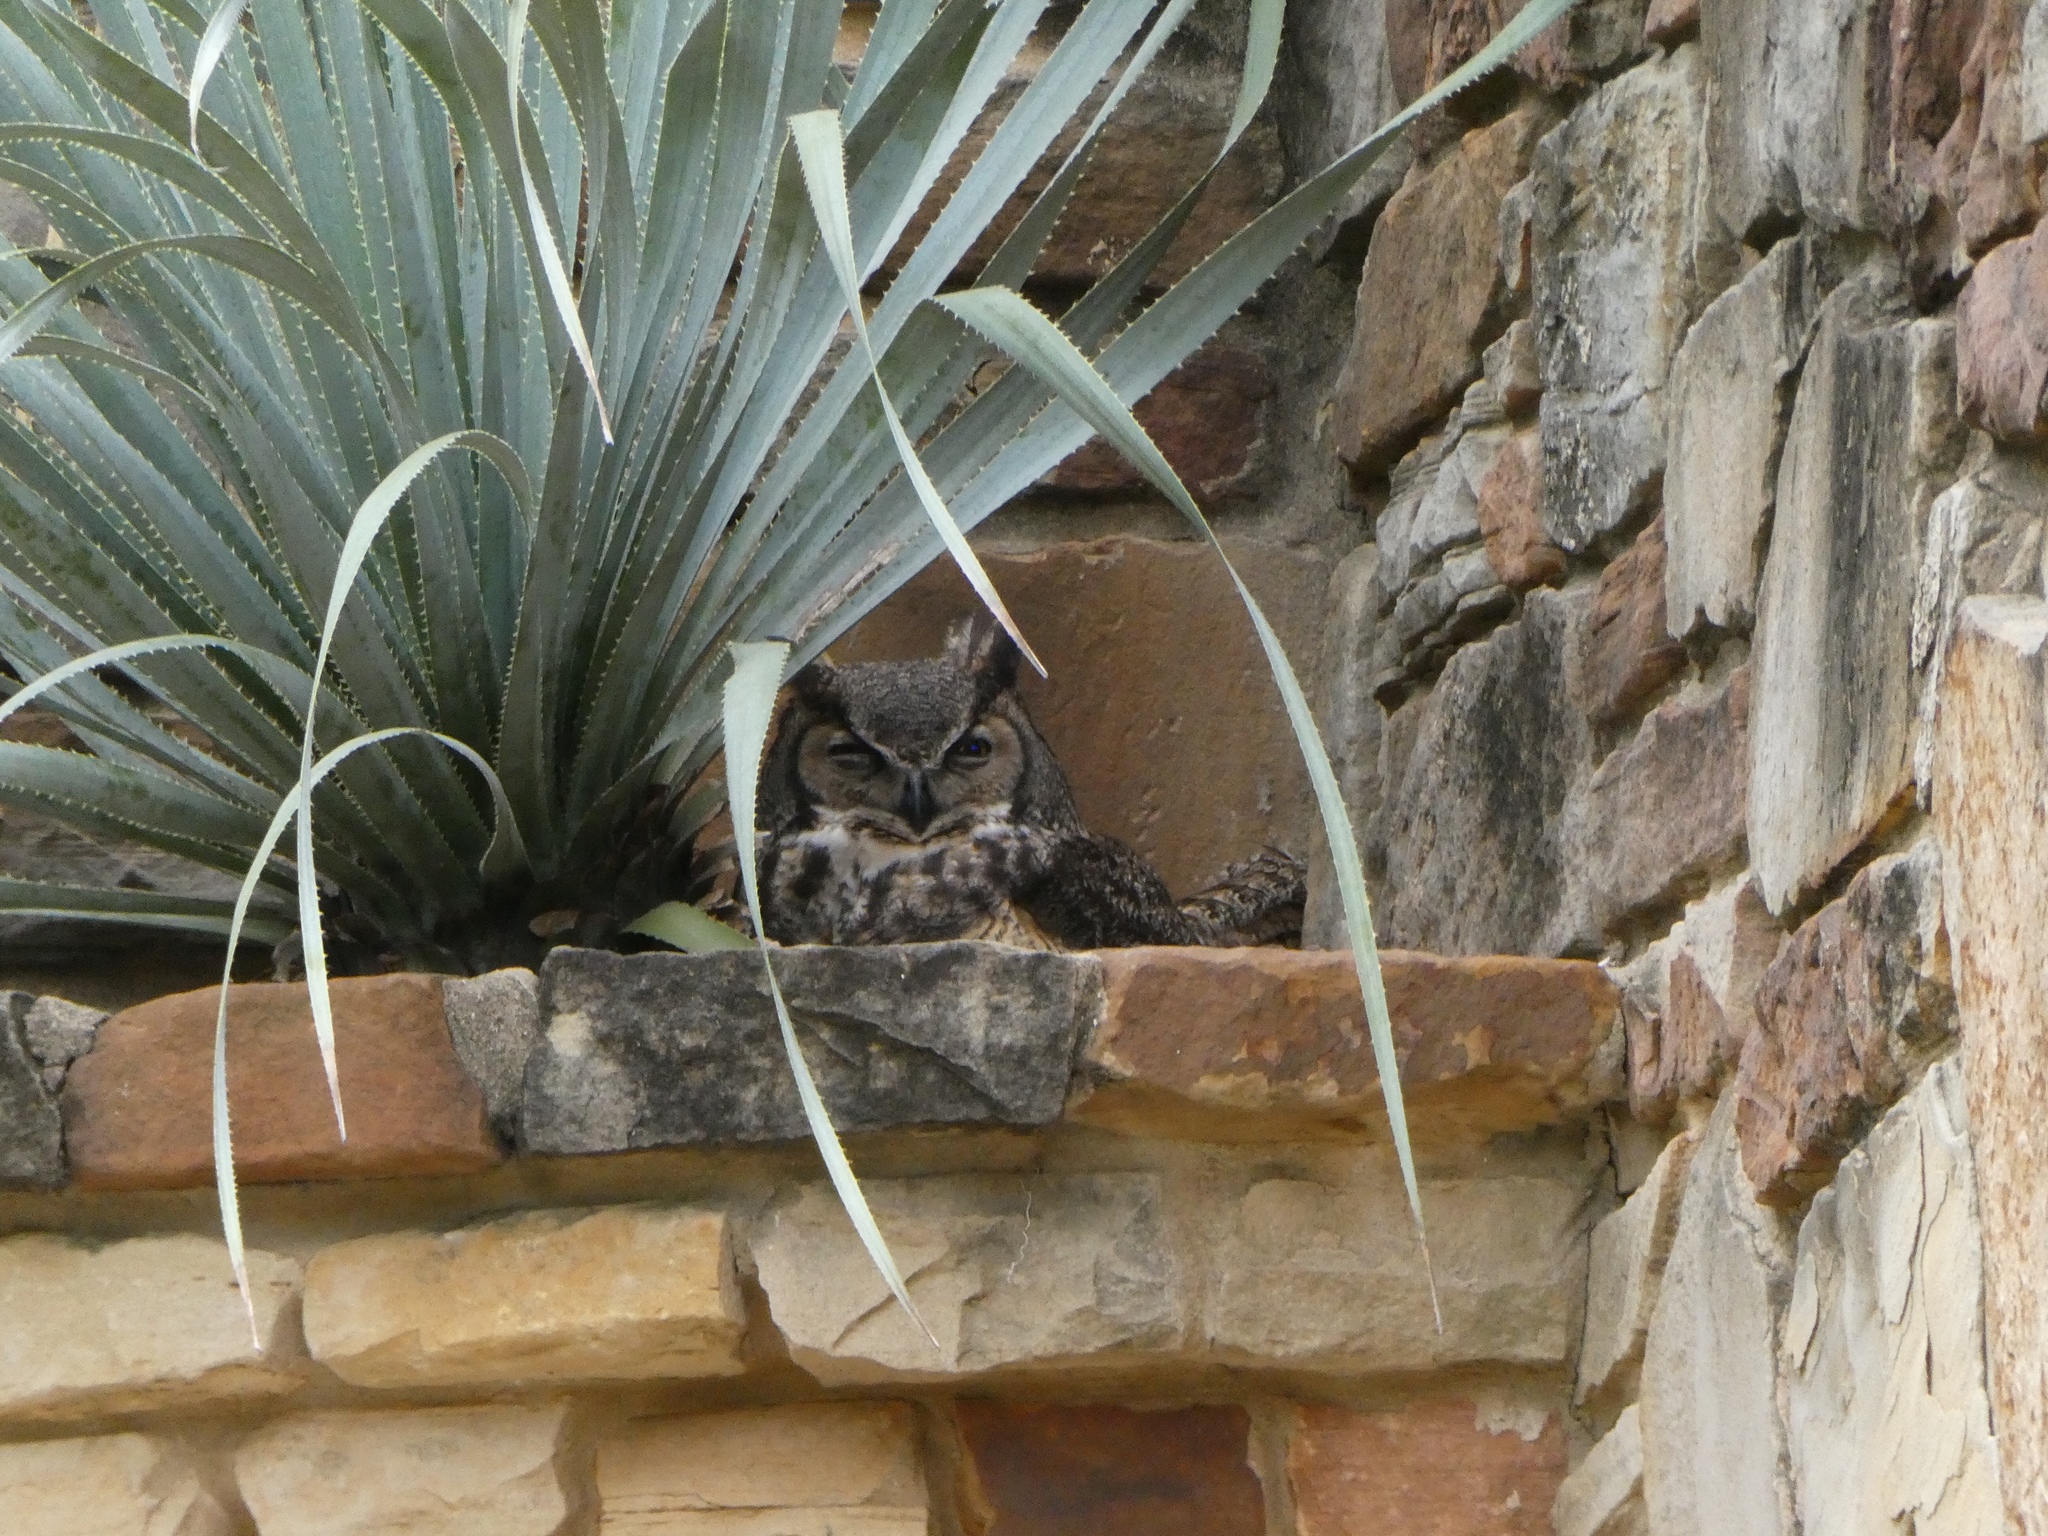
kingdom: Animalia
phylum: Chordata
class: Aves
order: Strigiformes
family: Strigidae
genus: Bubo
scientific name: Bubo virginianus
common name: Great horned owl
